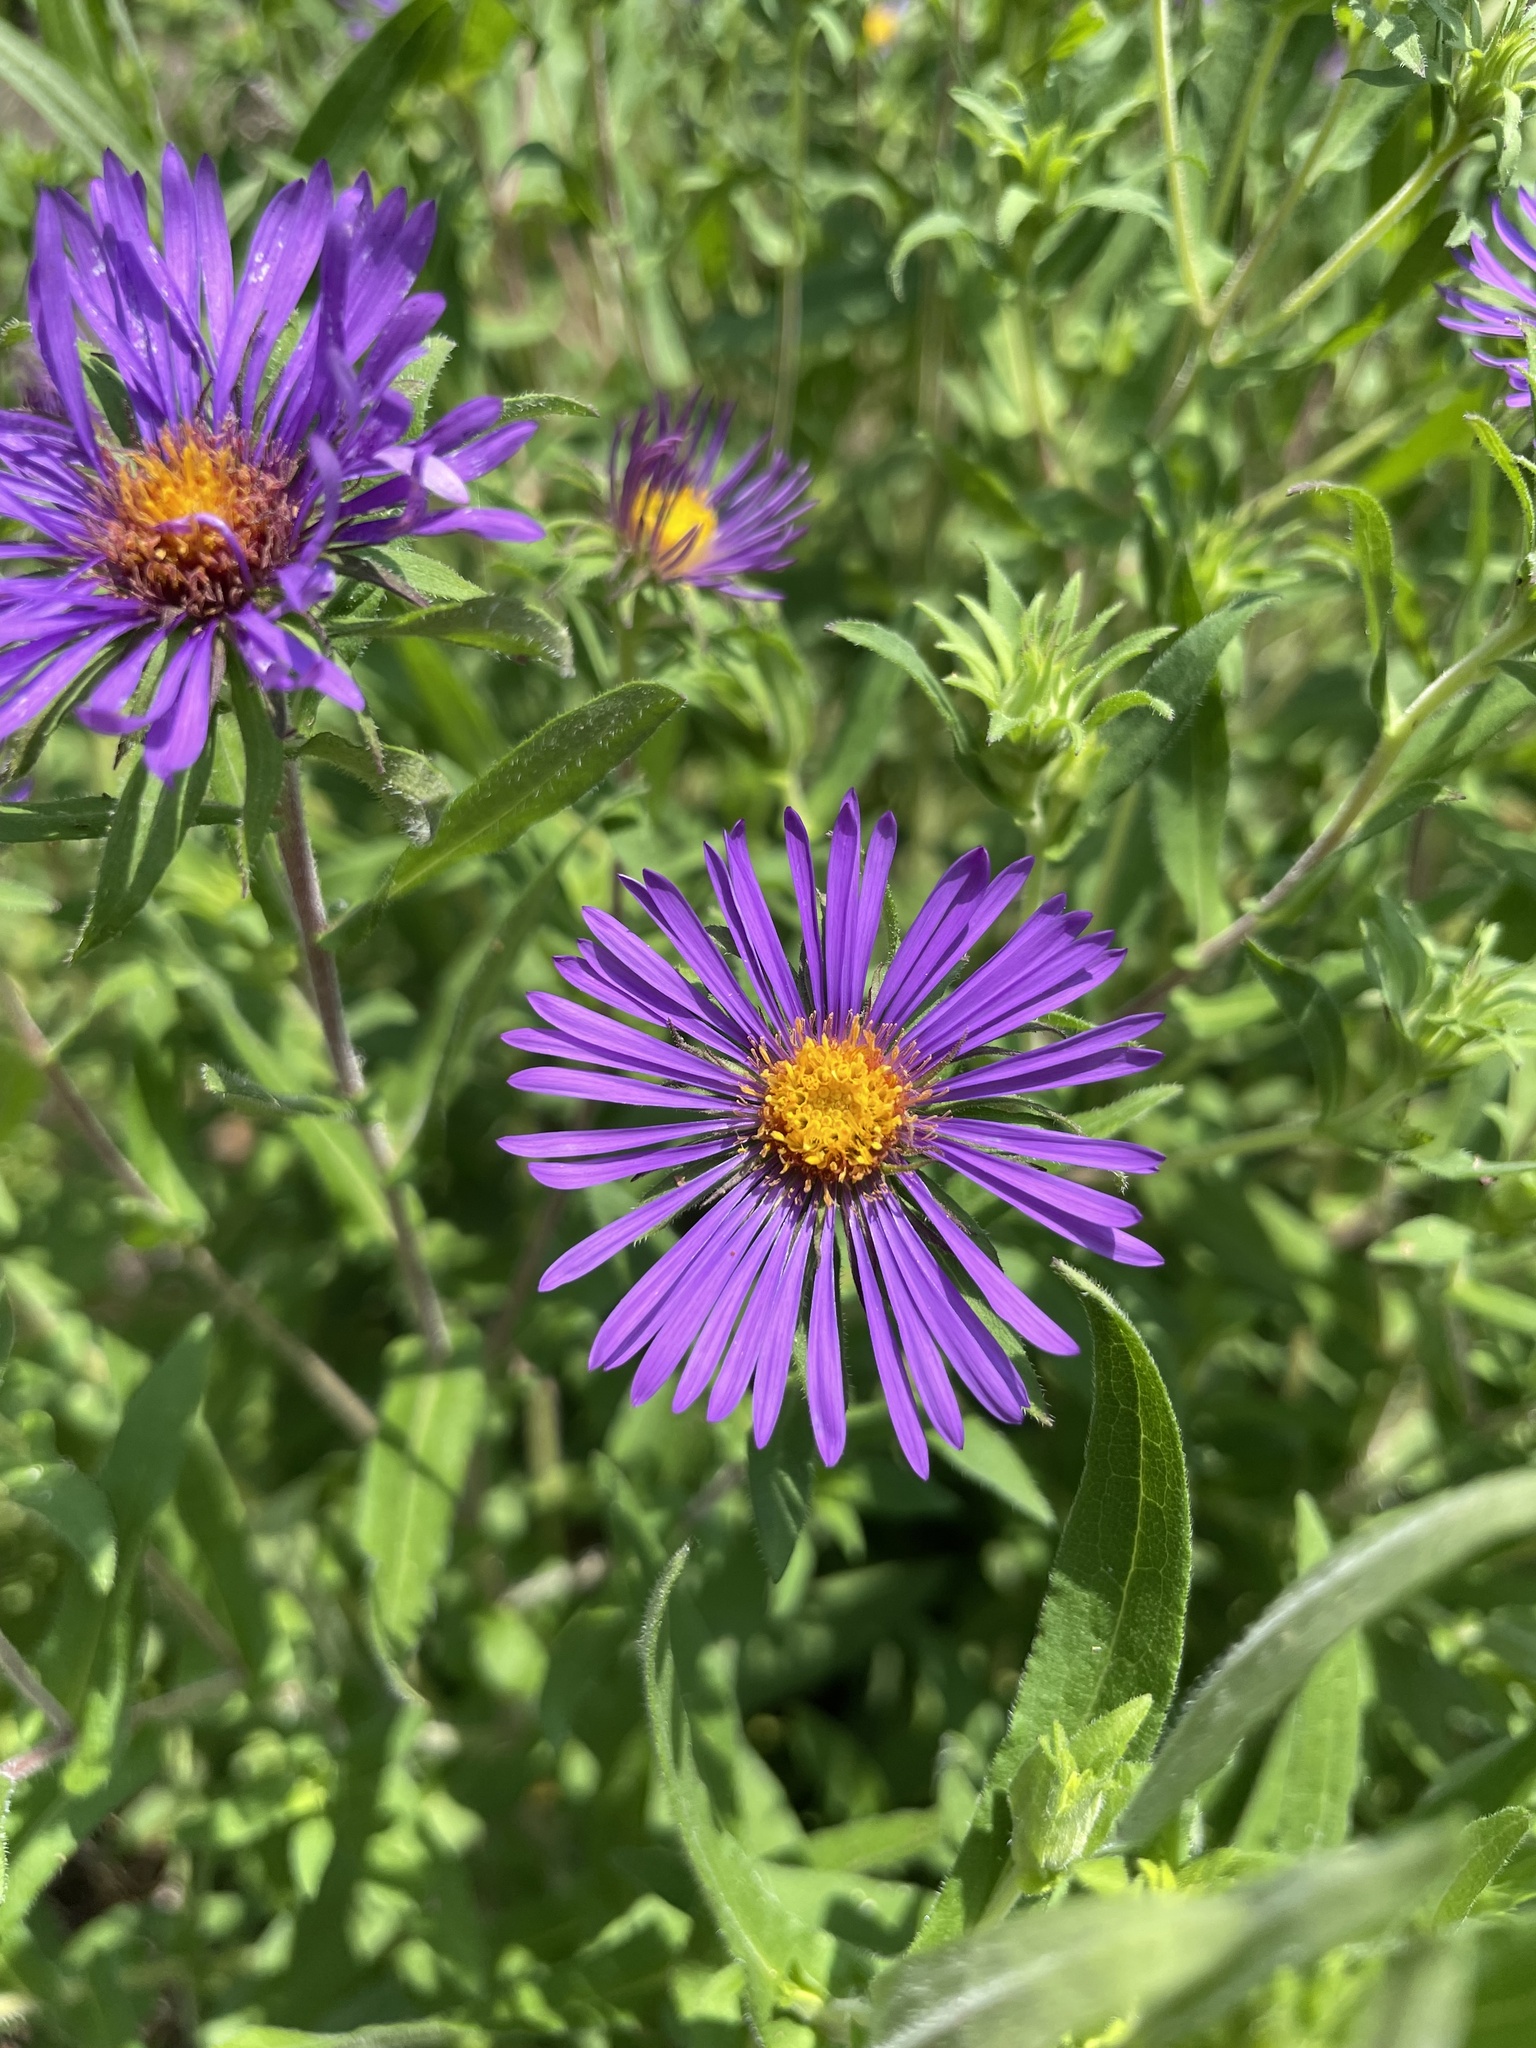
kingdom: Plantae
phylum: Tracheophyta
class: Magnoliopsida
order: Asterales
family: Asteraceae
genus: Symphyotrichum
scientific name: Symphyotrichum novae-angliae
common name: Michaelmas daisy
